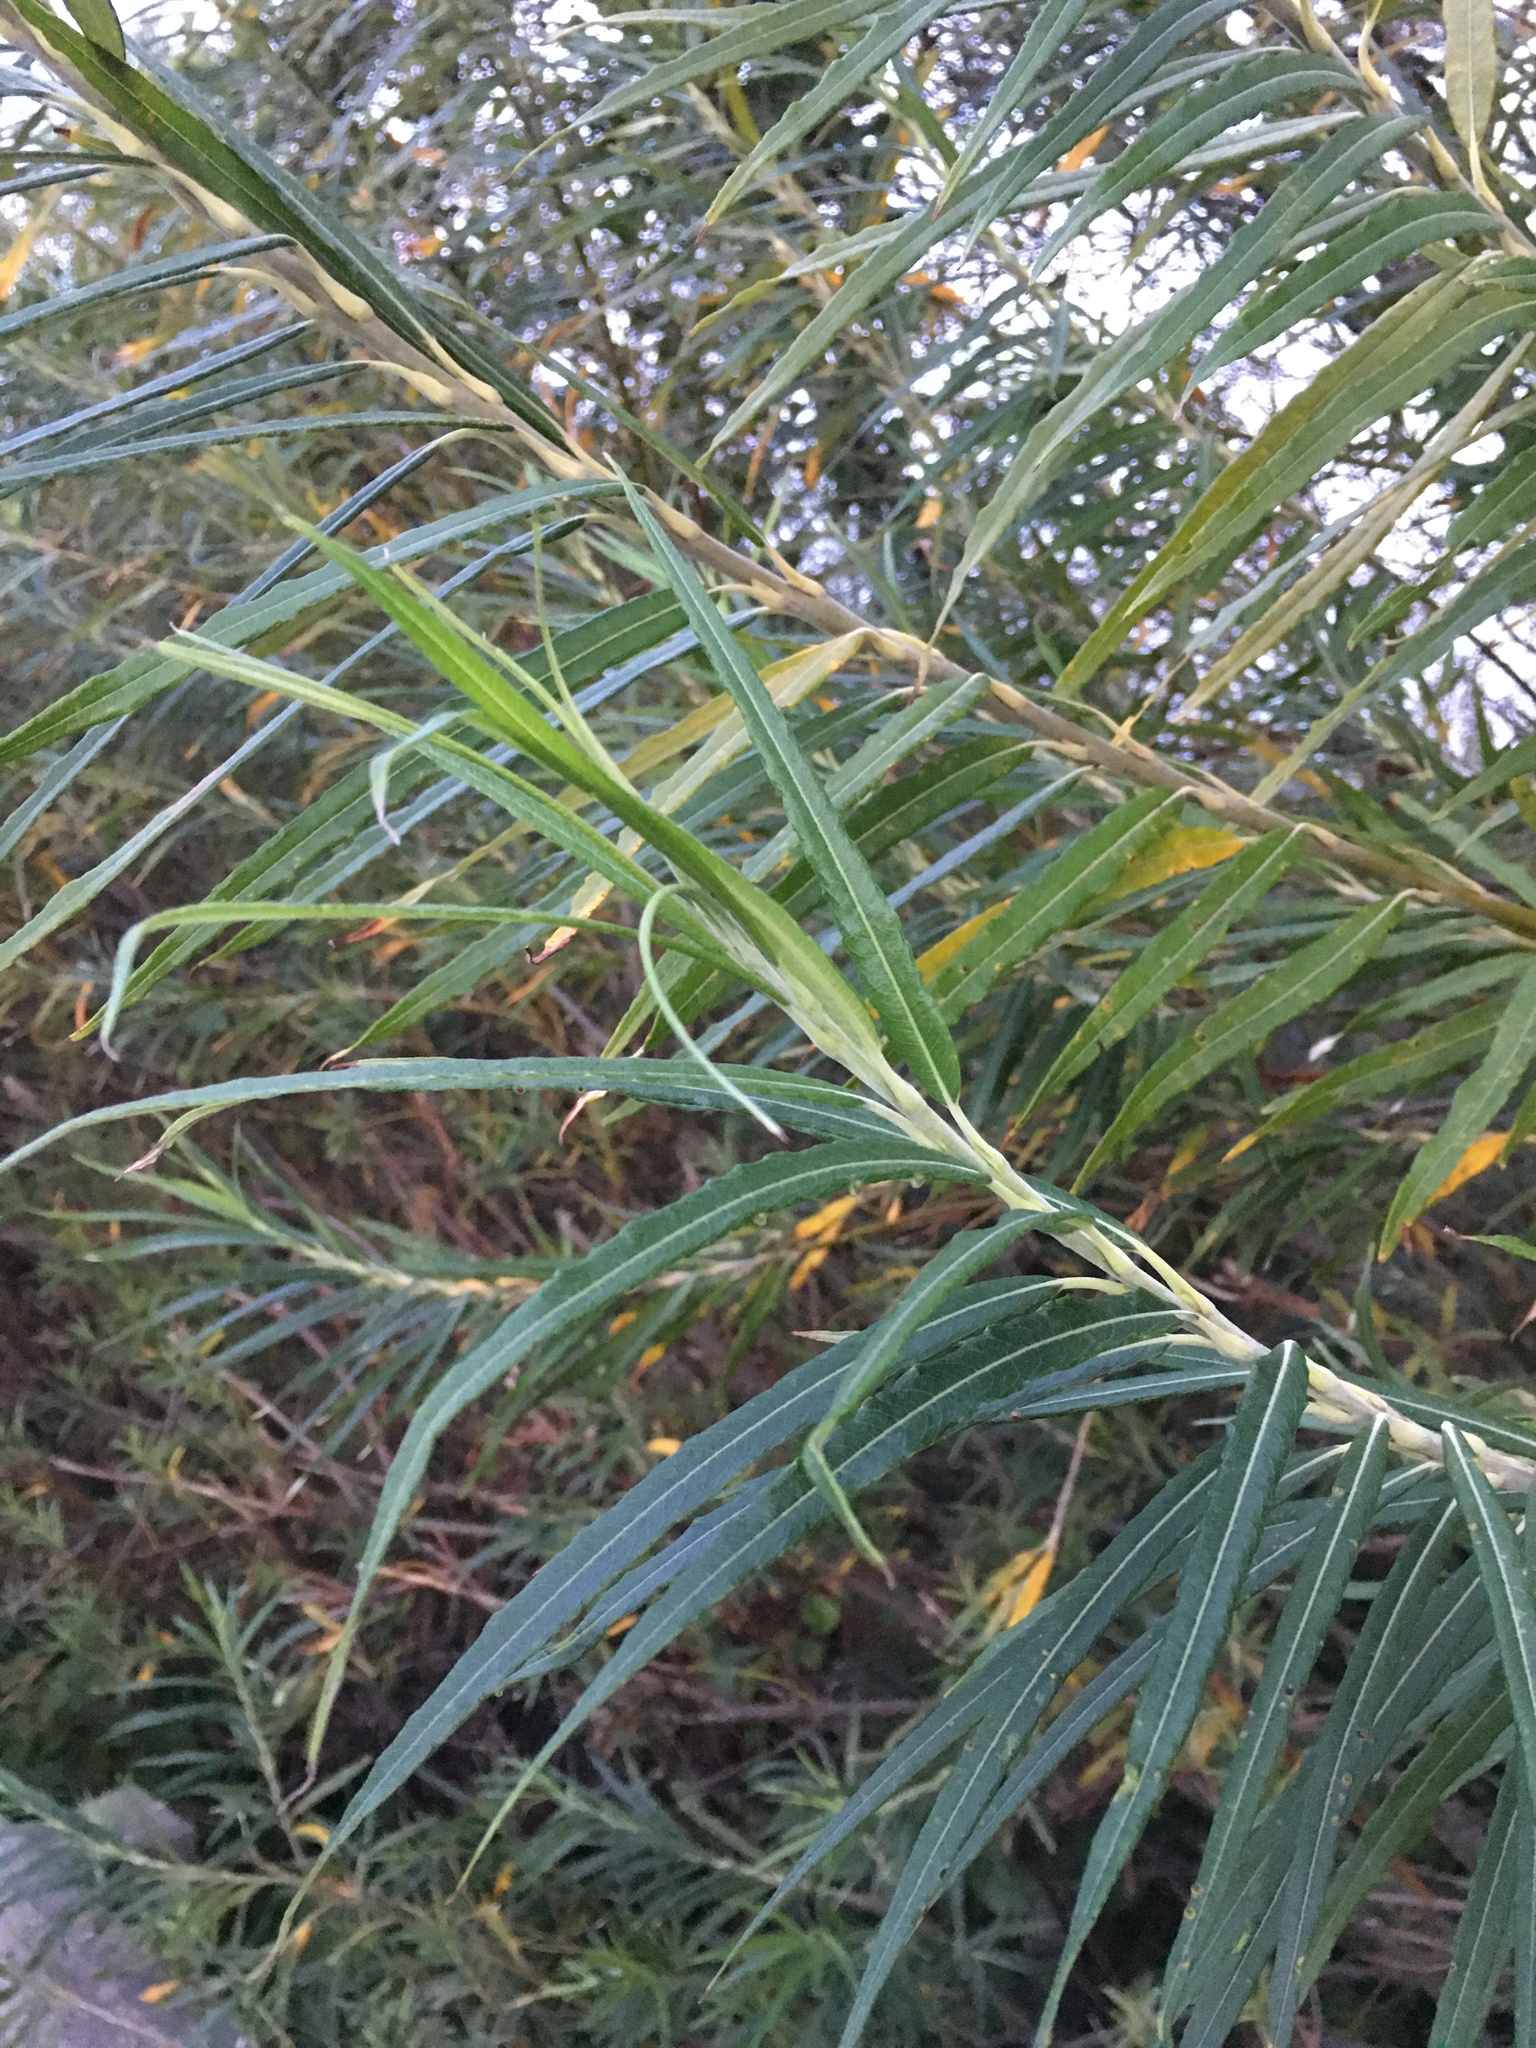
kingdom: Plantae
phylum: Tracheophyta
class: Magnoliopsida
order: Malpighiales
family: Salicaceae
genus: Salix
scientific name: Salix viminalis
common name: Osier
